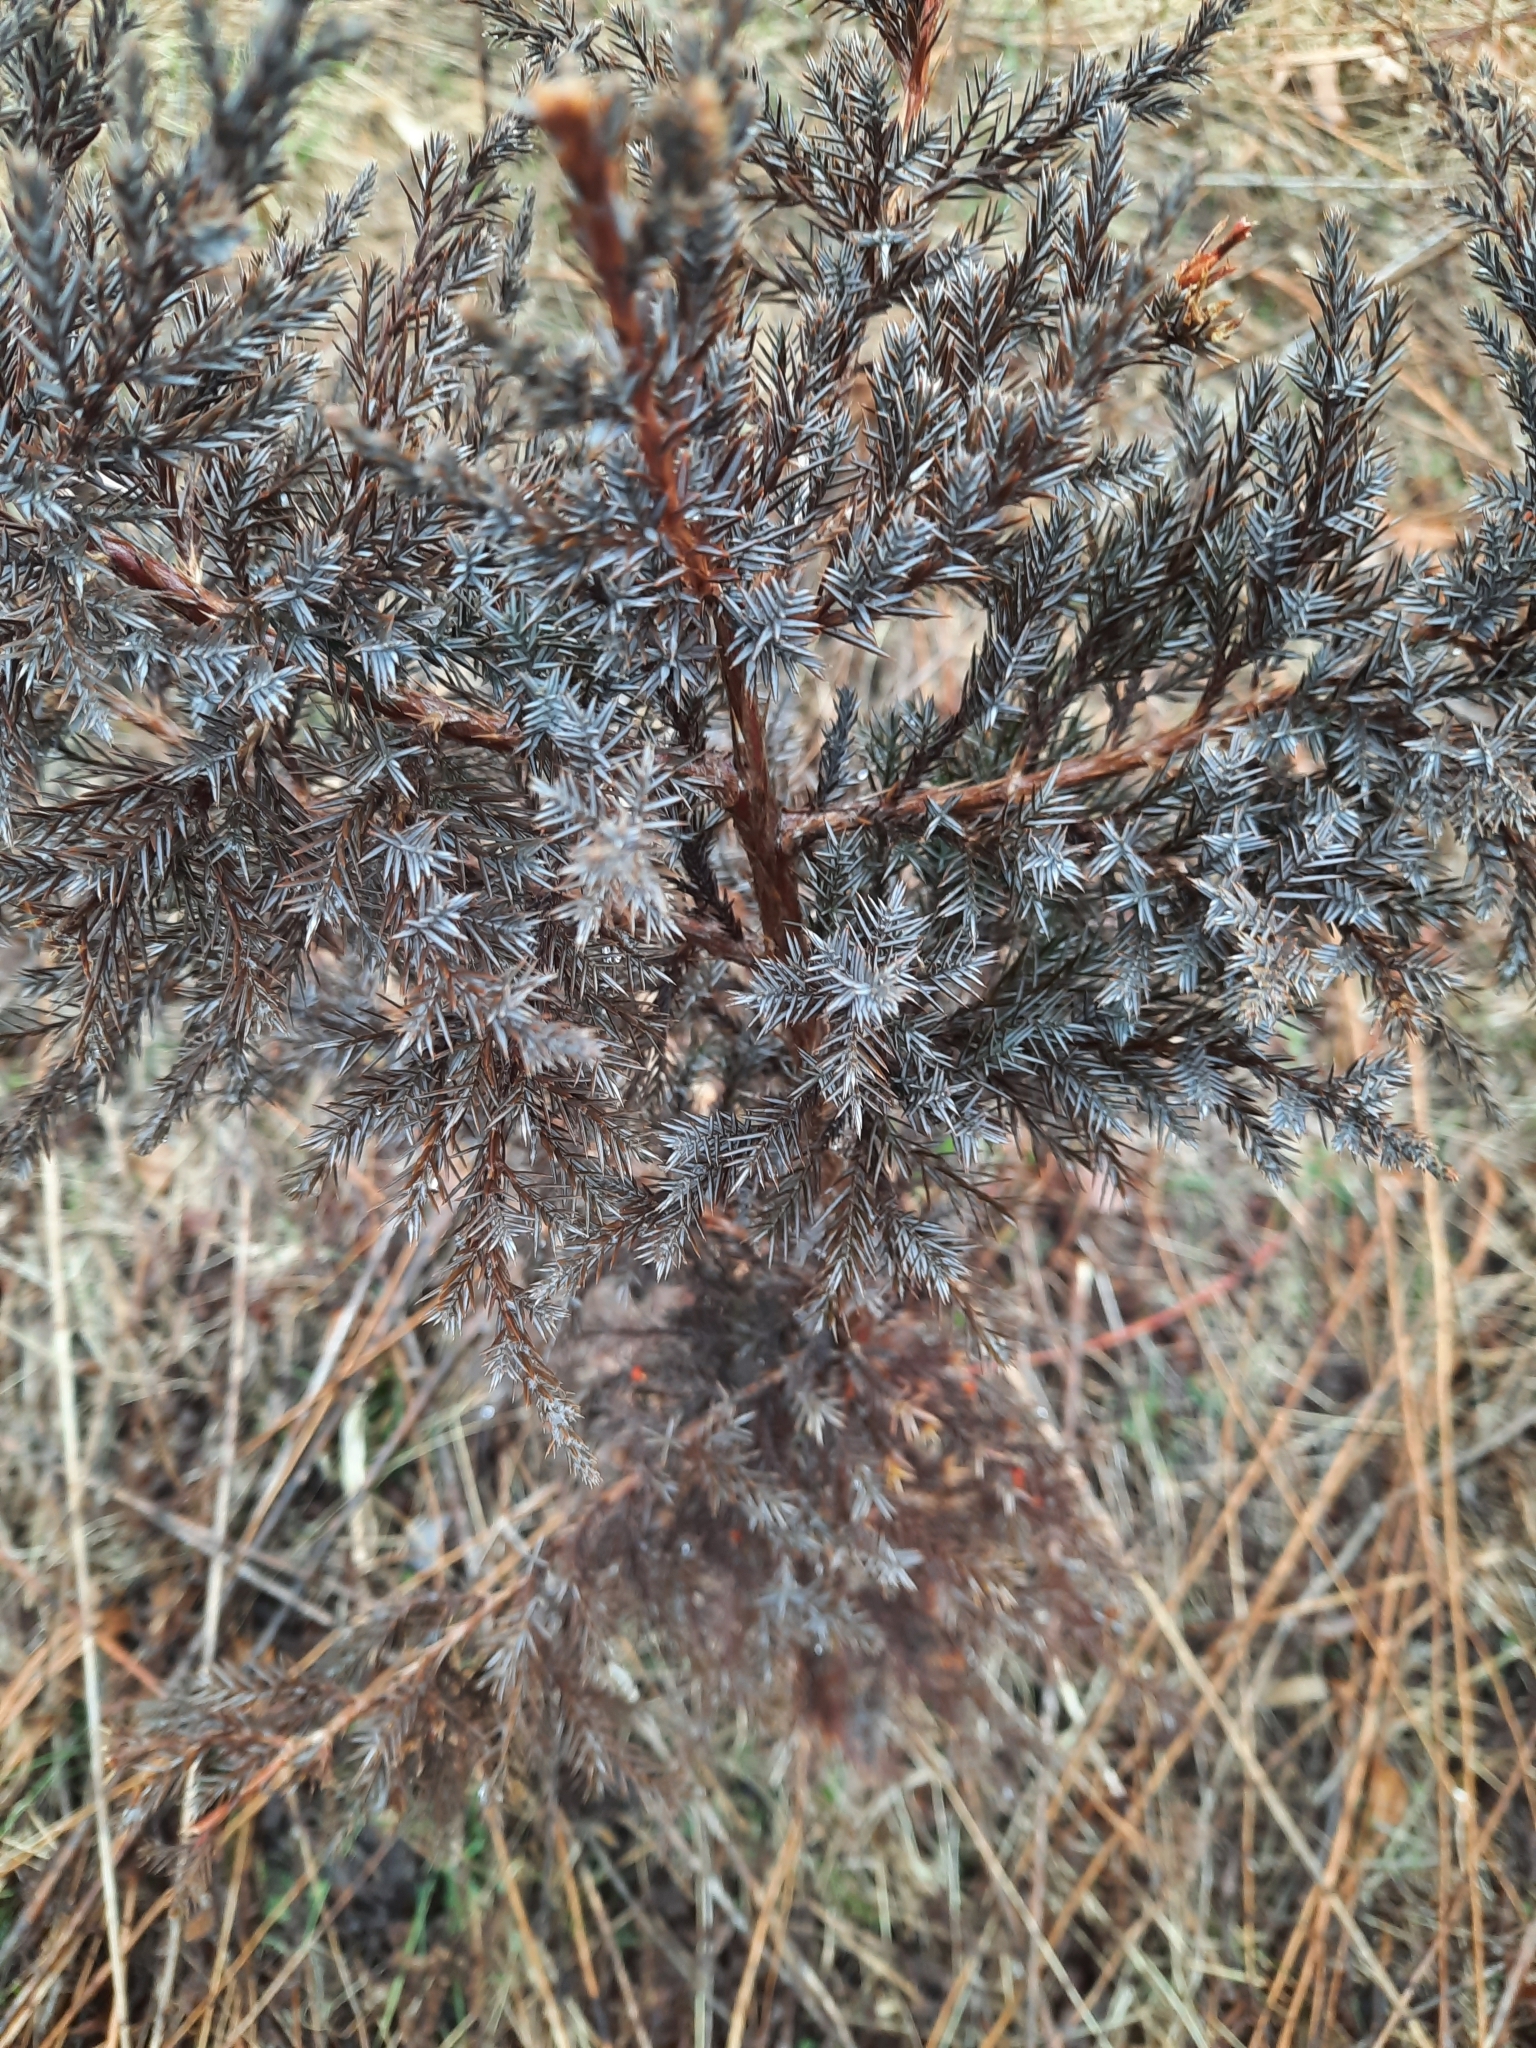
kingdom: Plantae
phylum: Tracheophyta
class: Pinopsida
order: Pinales
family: Cupressaceae
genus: Juniperus
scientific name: Juniperus virginiana
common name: Red juniper
